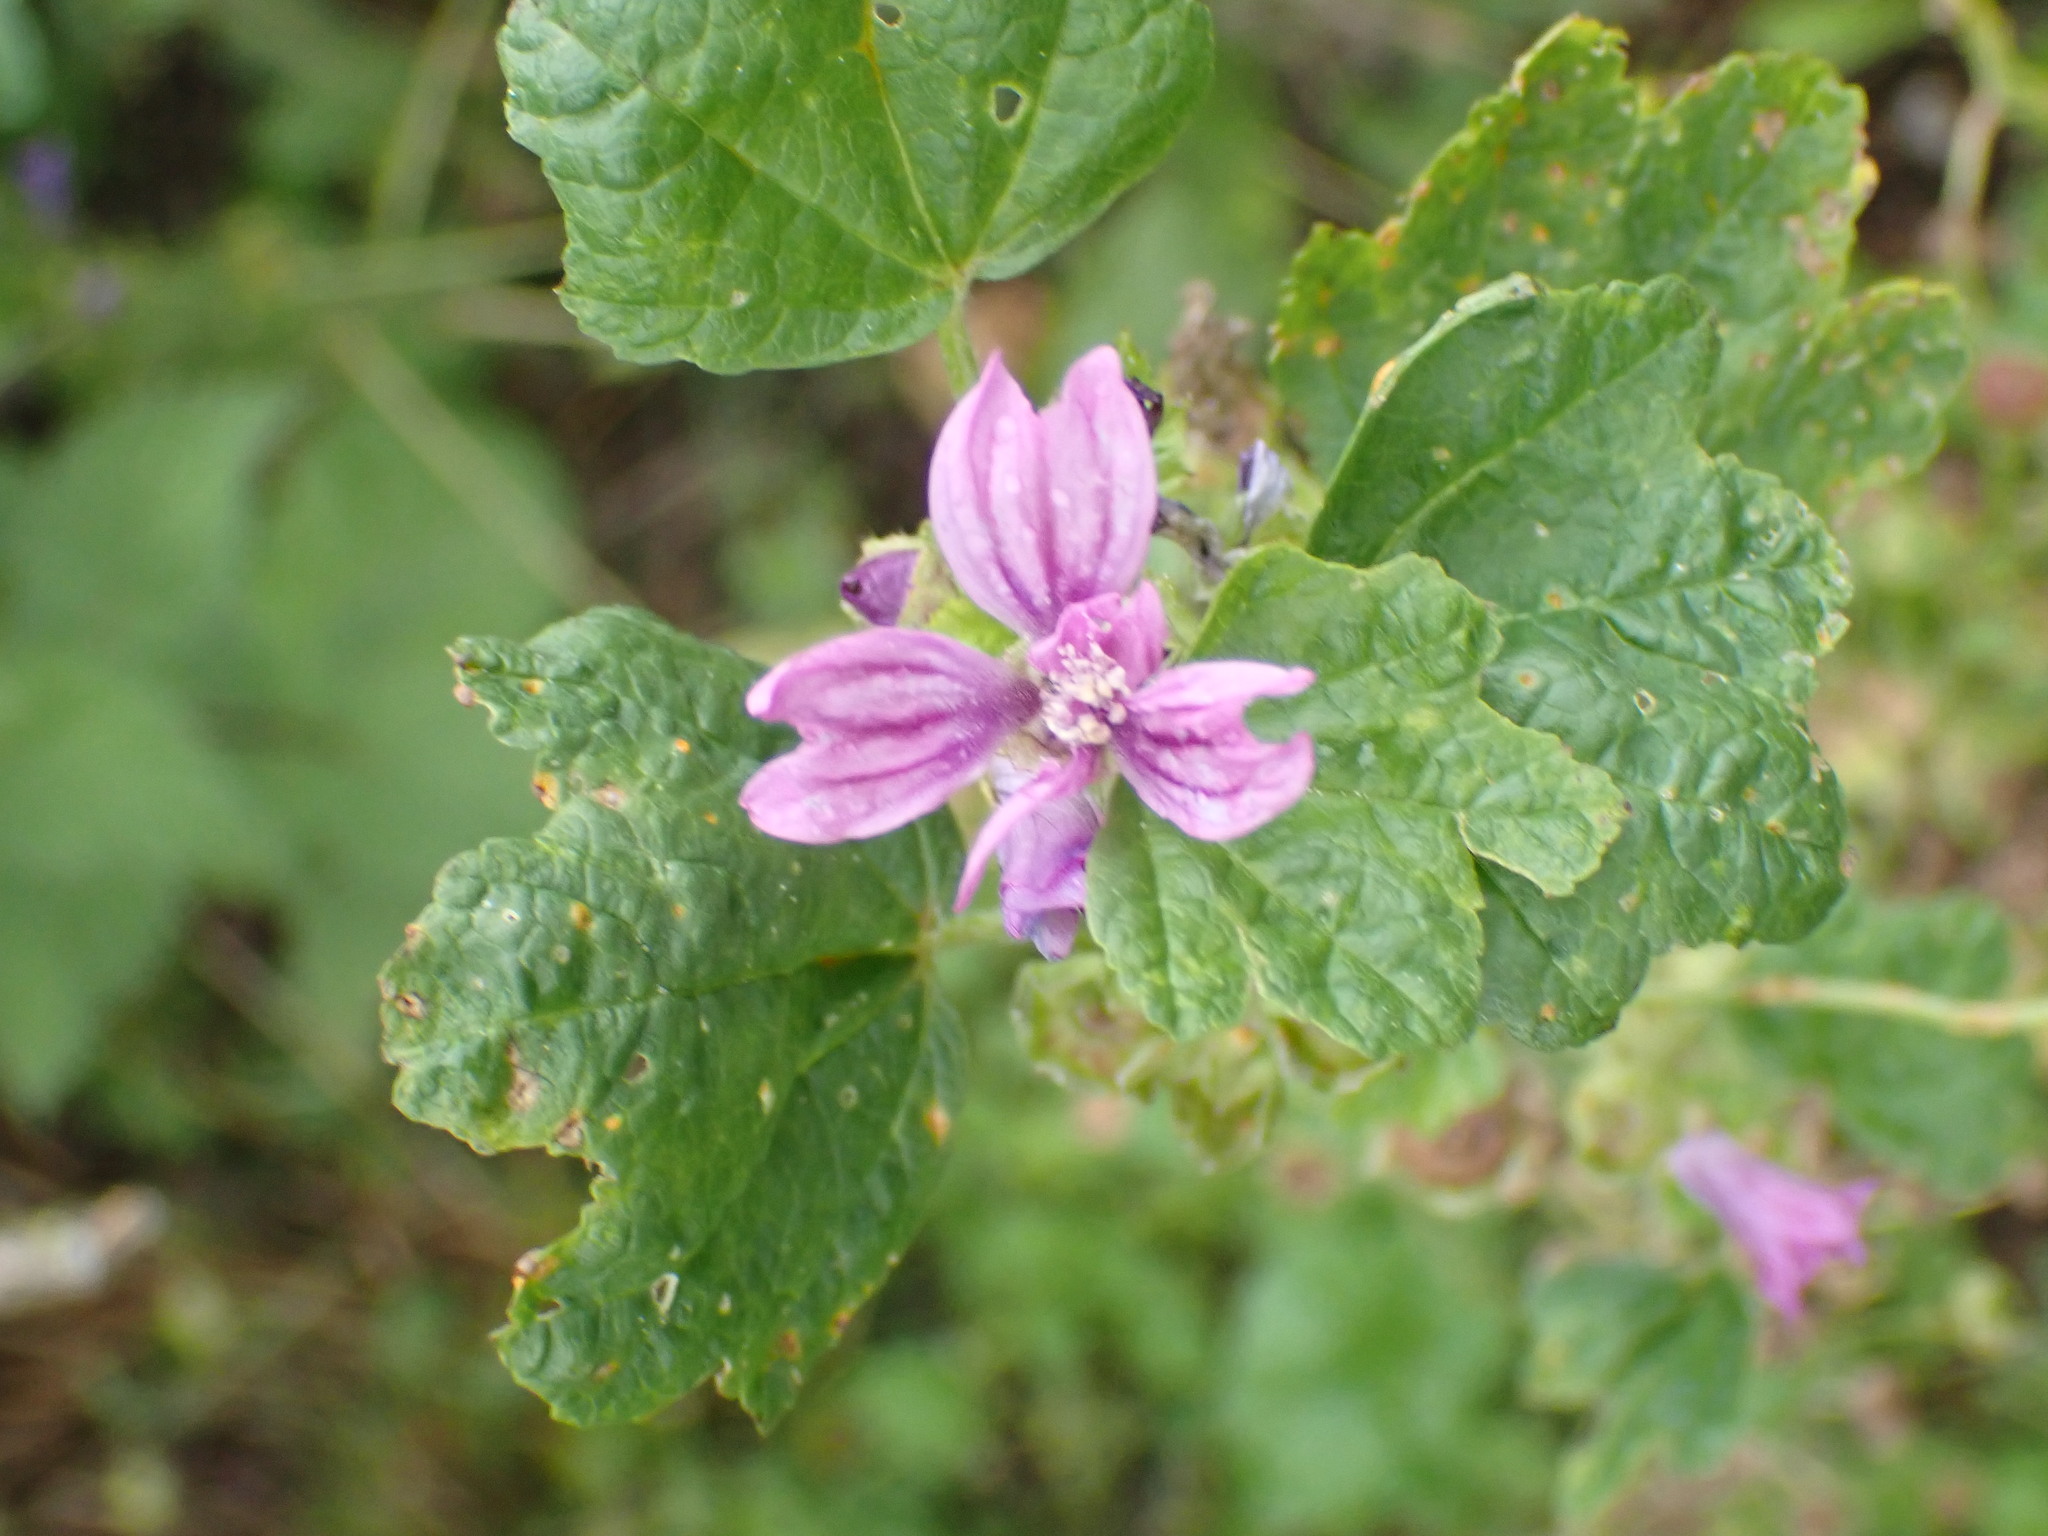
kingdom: Plantae
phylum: Tracheophyta
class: Magnoliopsida
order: Malvales
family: Malvaceae
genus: Malva
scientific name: Malva sylvestris
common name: Common mallow
